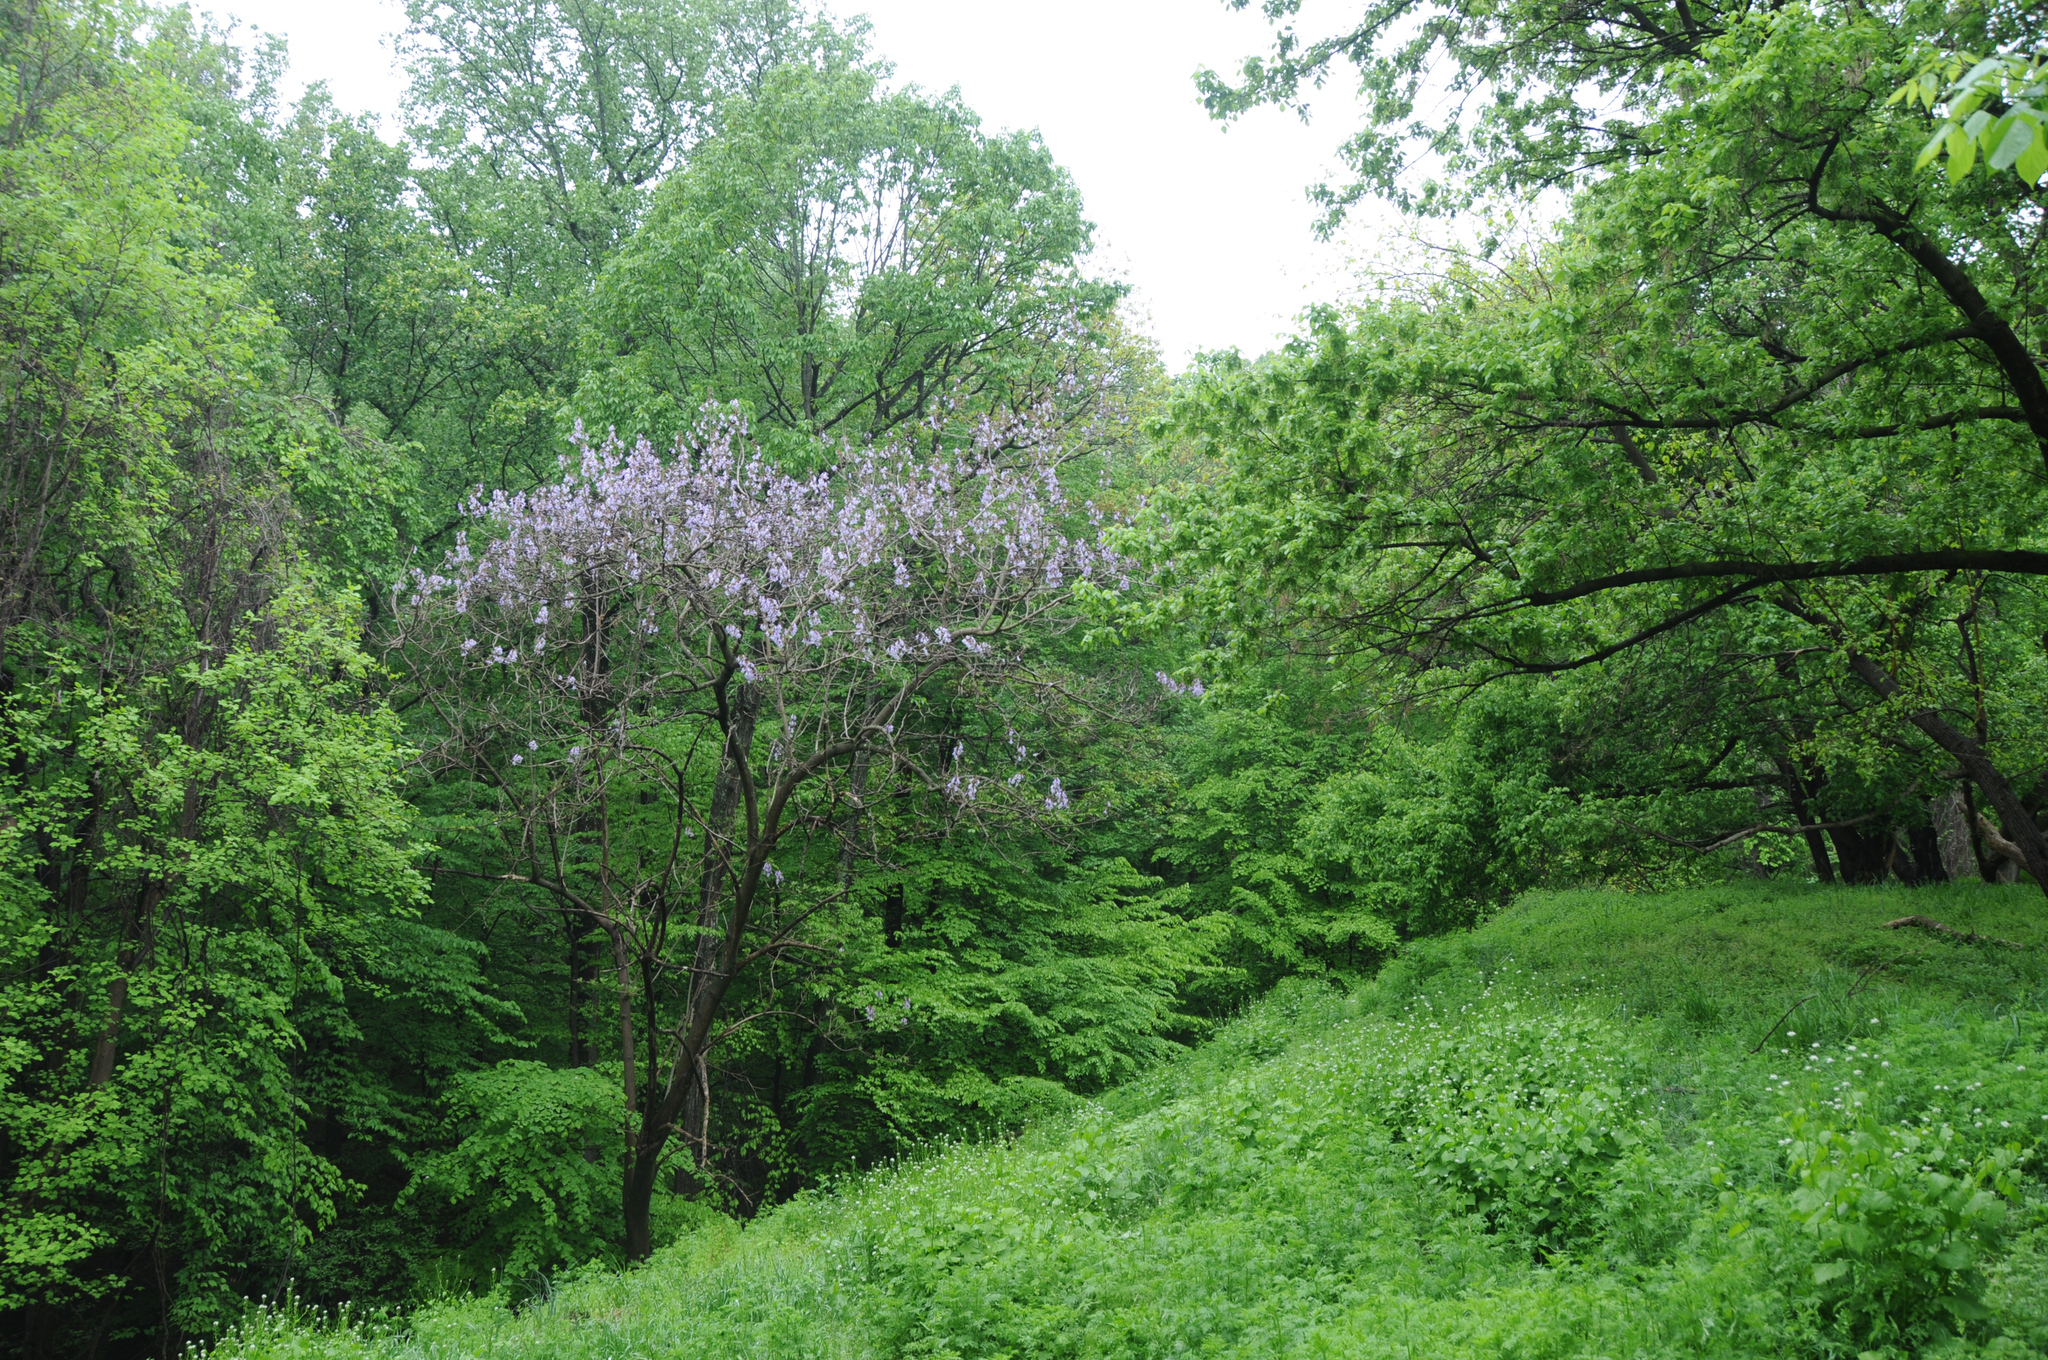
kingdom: Plantae
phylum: Tracheophyta
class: Magnoliopsida
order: Lamiales
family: Paulowniaceae
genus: Paulownia
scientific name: Paulownia tomentosa
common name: Foxglove-tree
